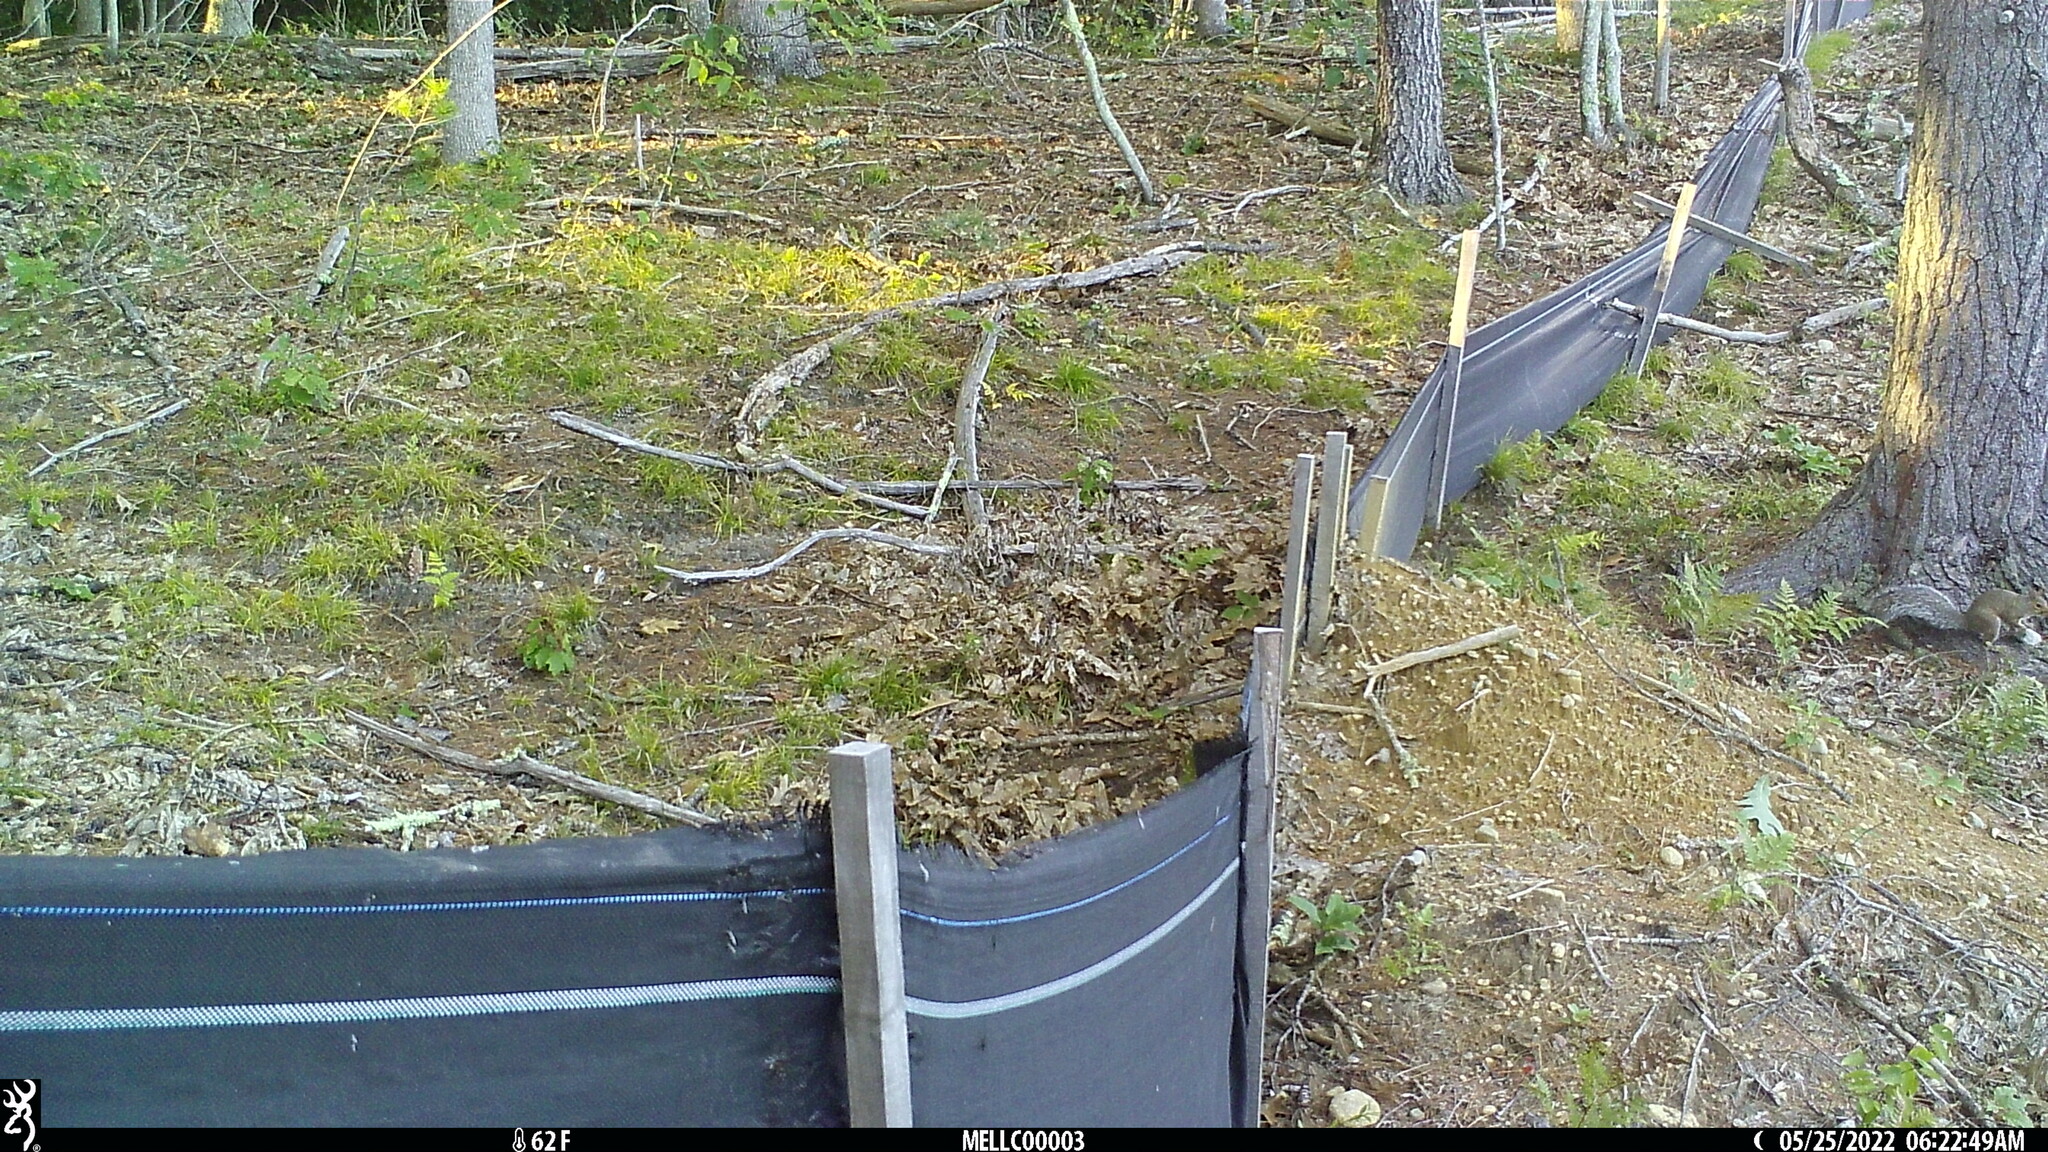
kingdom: Animalia
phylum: Chordata
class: Mammalia
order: Rodentia
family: Sciuridae
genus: Sciurus
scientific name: Sciurus carolinensis
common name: Eastern gray squirrel
